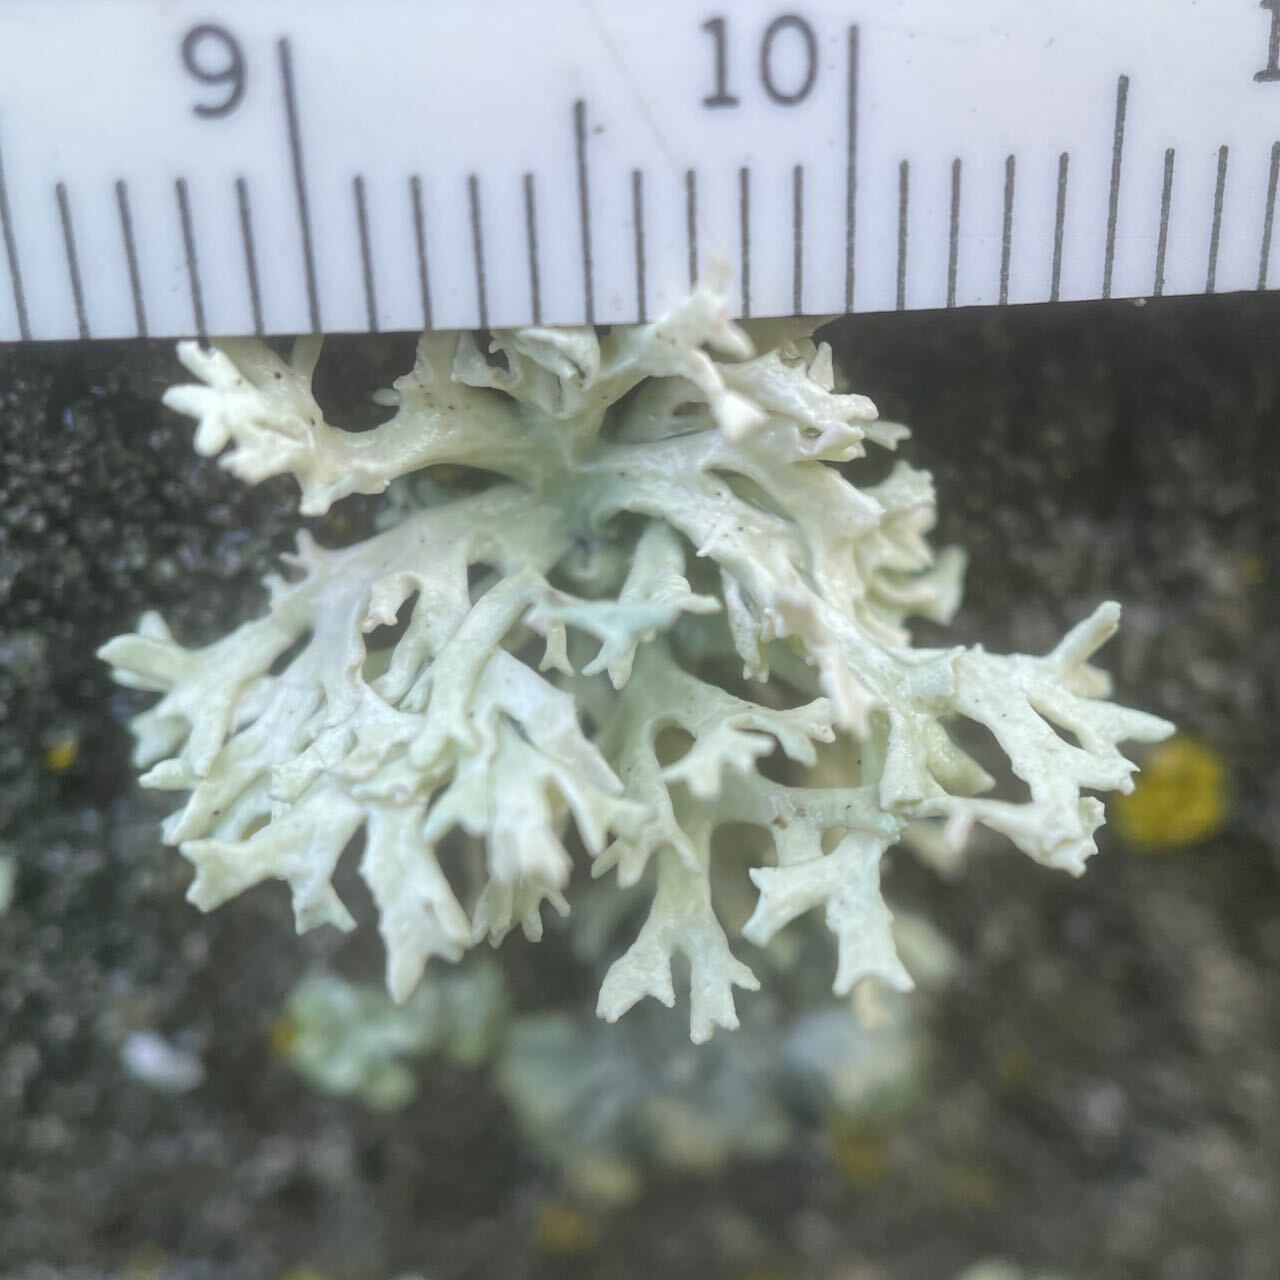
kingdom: Fungi
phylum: Ascomycota
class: Lecanoromycetes
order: Lecanorales
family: Parmeliaceae
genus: Evernia
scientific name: Evernia prunastri
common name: Oak moss
